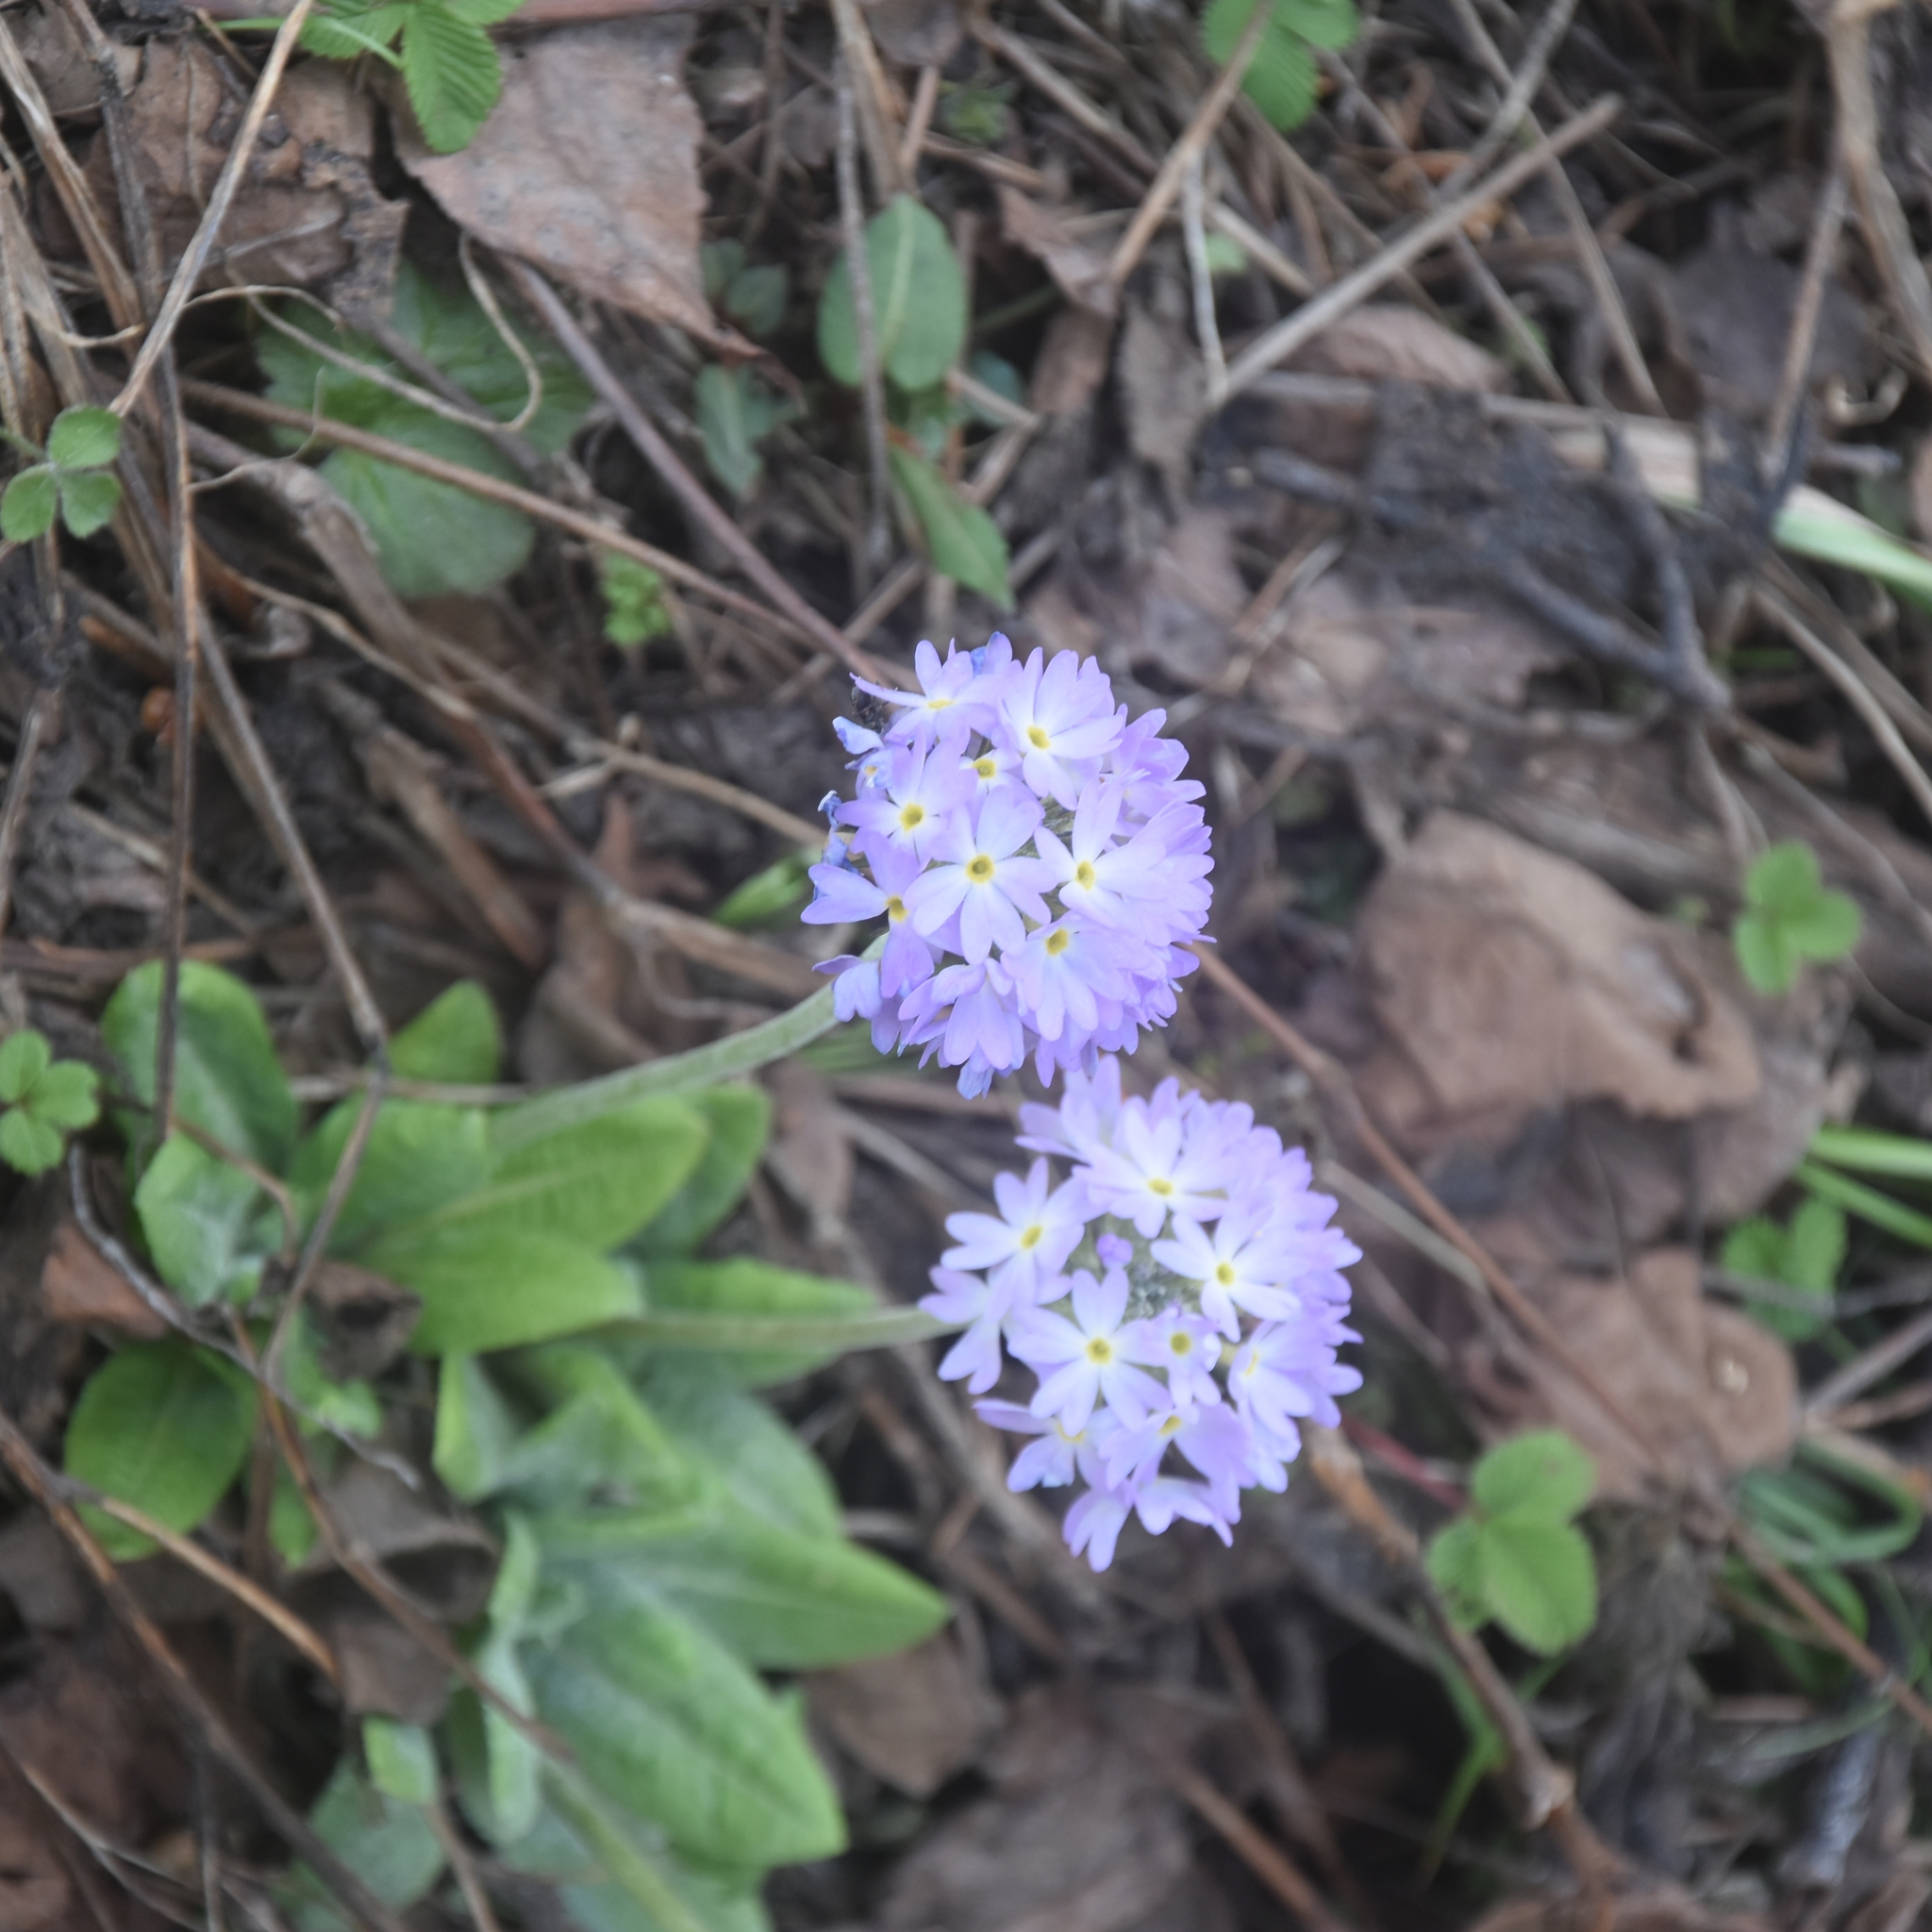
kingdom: Plantae
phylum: Tracheophyta
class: Magnoliopsida
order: Ericales
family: Primulaceae
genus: Primula
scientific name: Primula denticulata
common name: Drumstick primula
